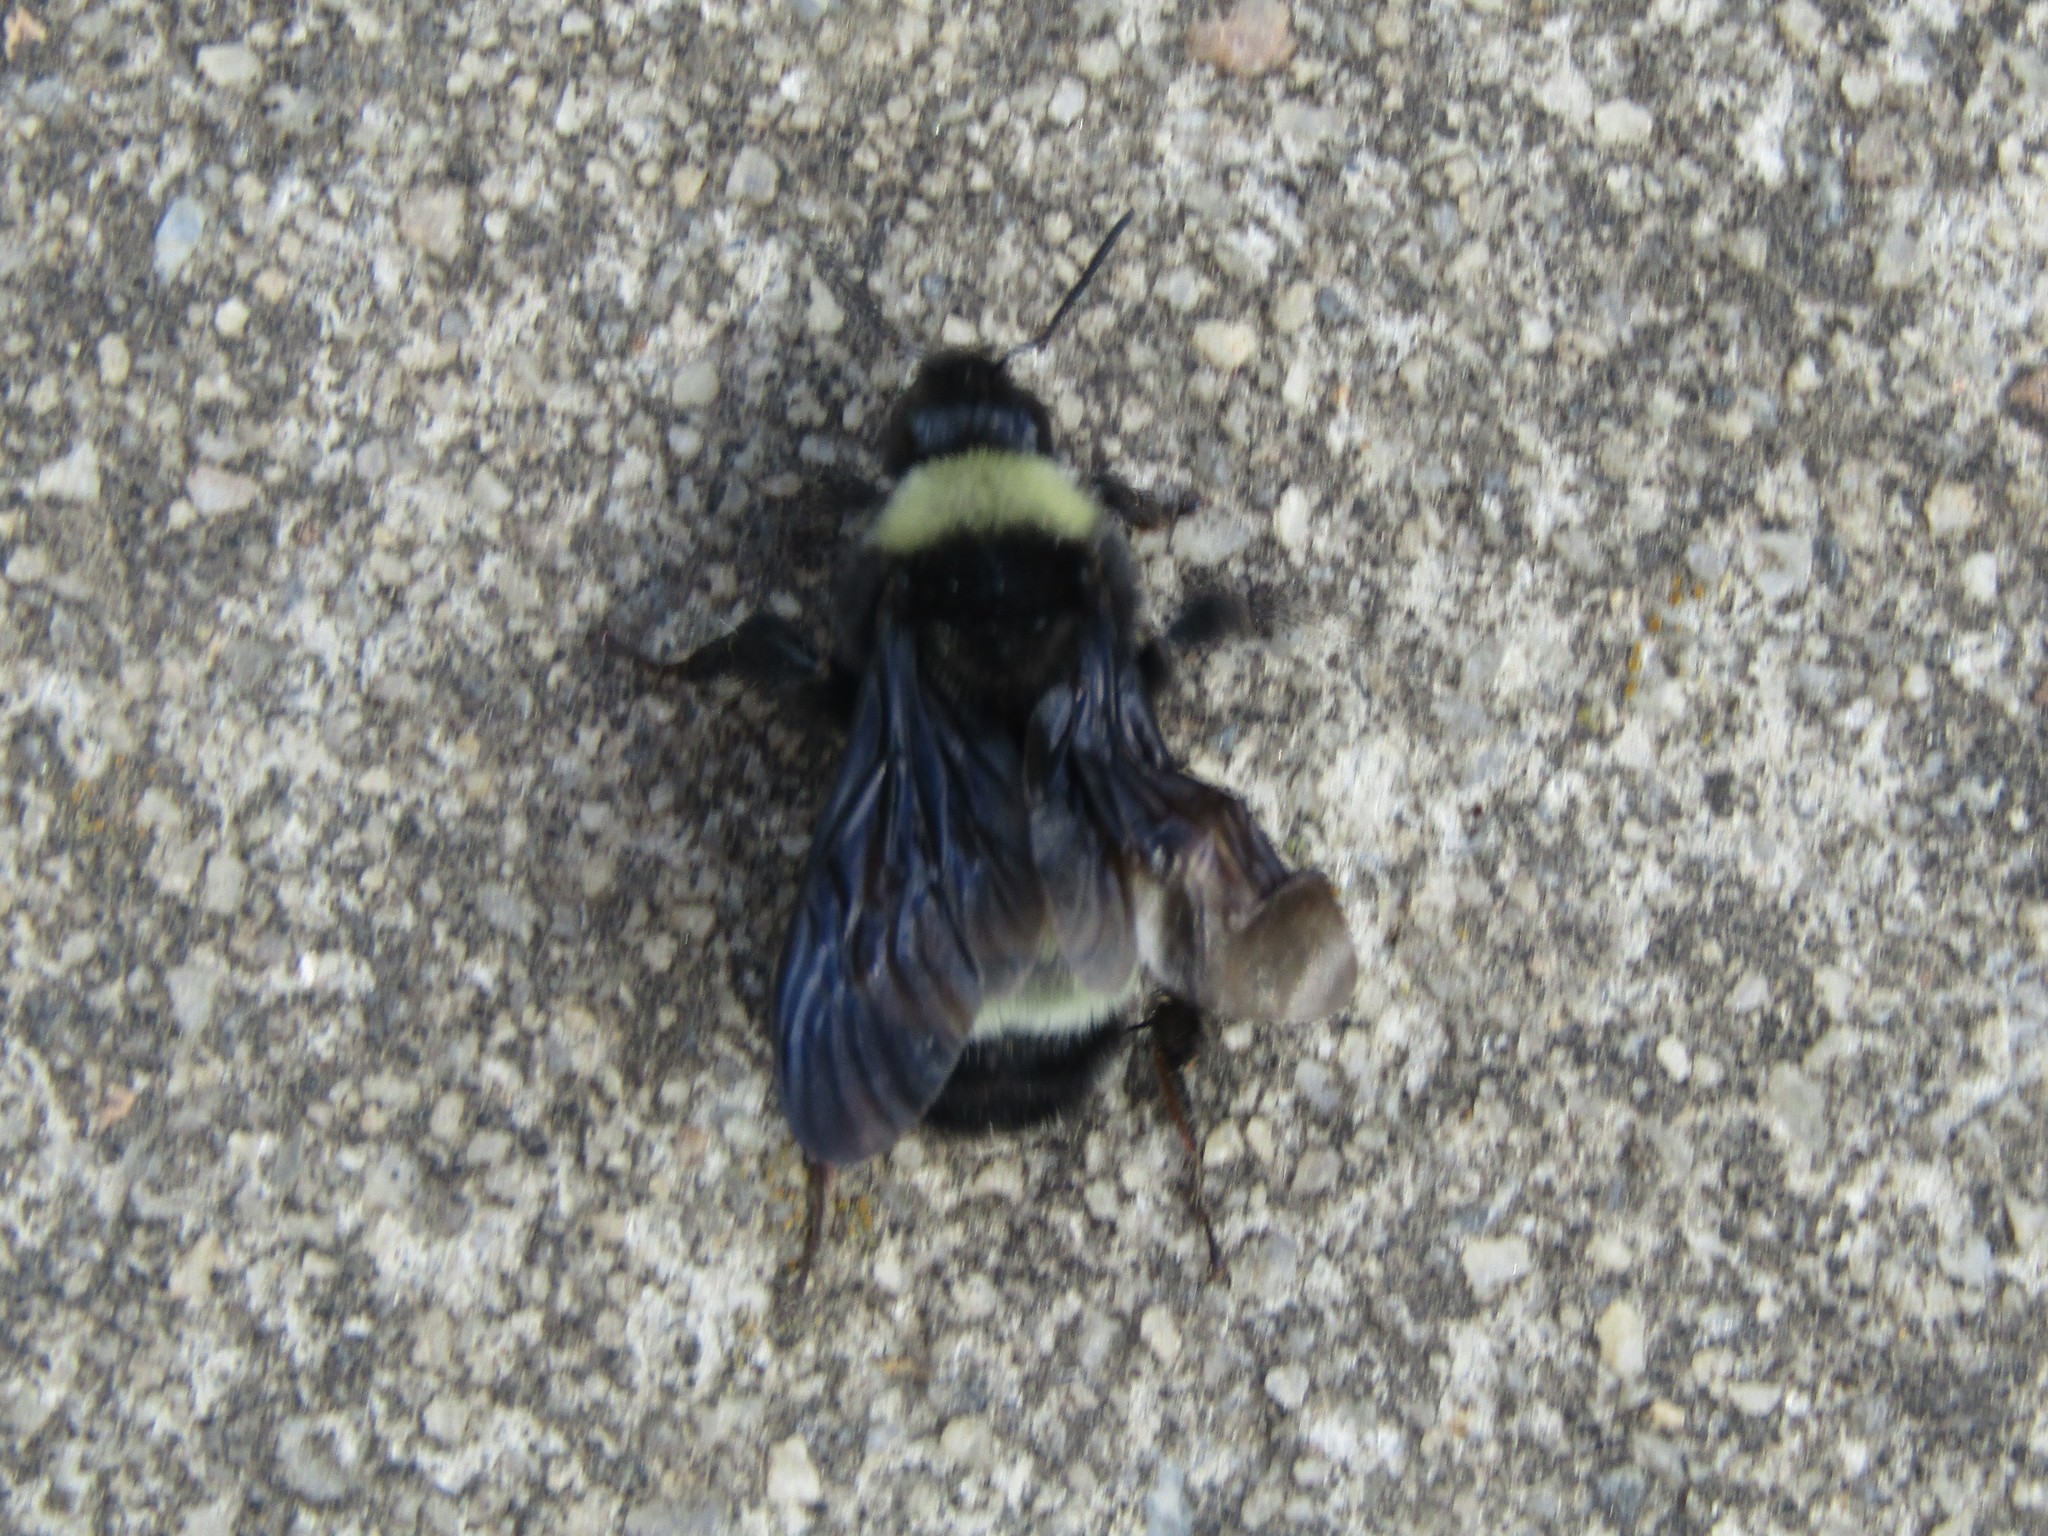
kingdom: Animalia
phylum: Arthropoda
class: Insecta
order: Hymenoptera
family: Apidae
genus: Bombus
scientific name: Bombus pensylvanicus
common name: Bumble bee
